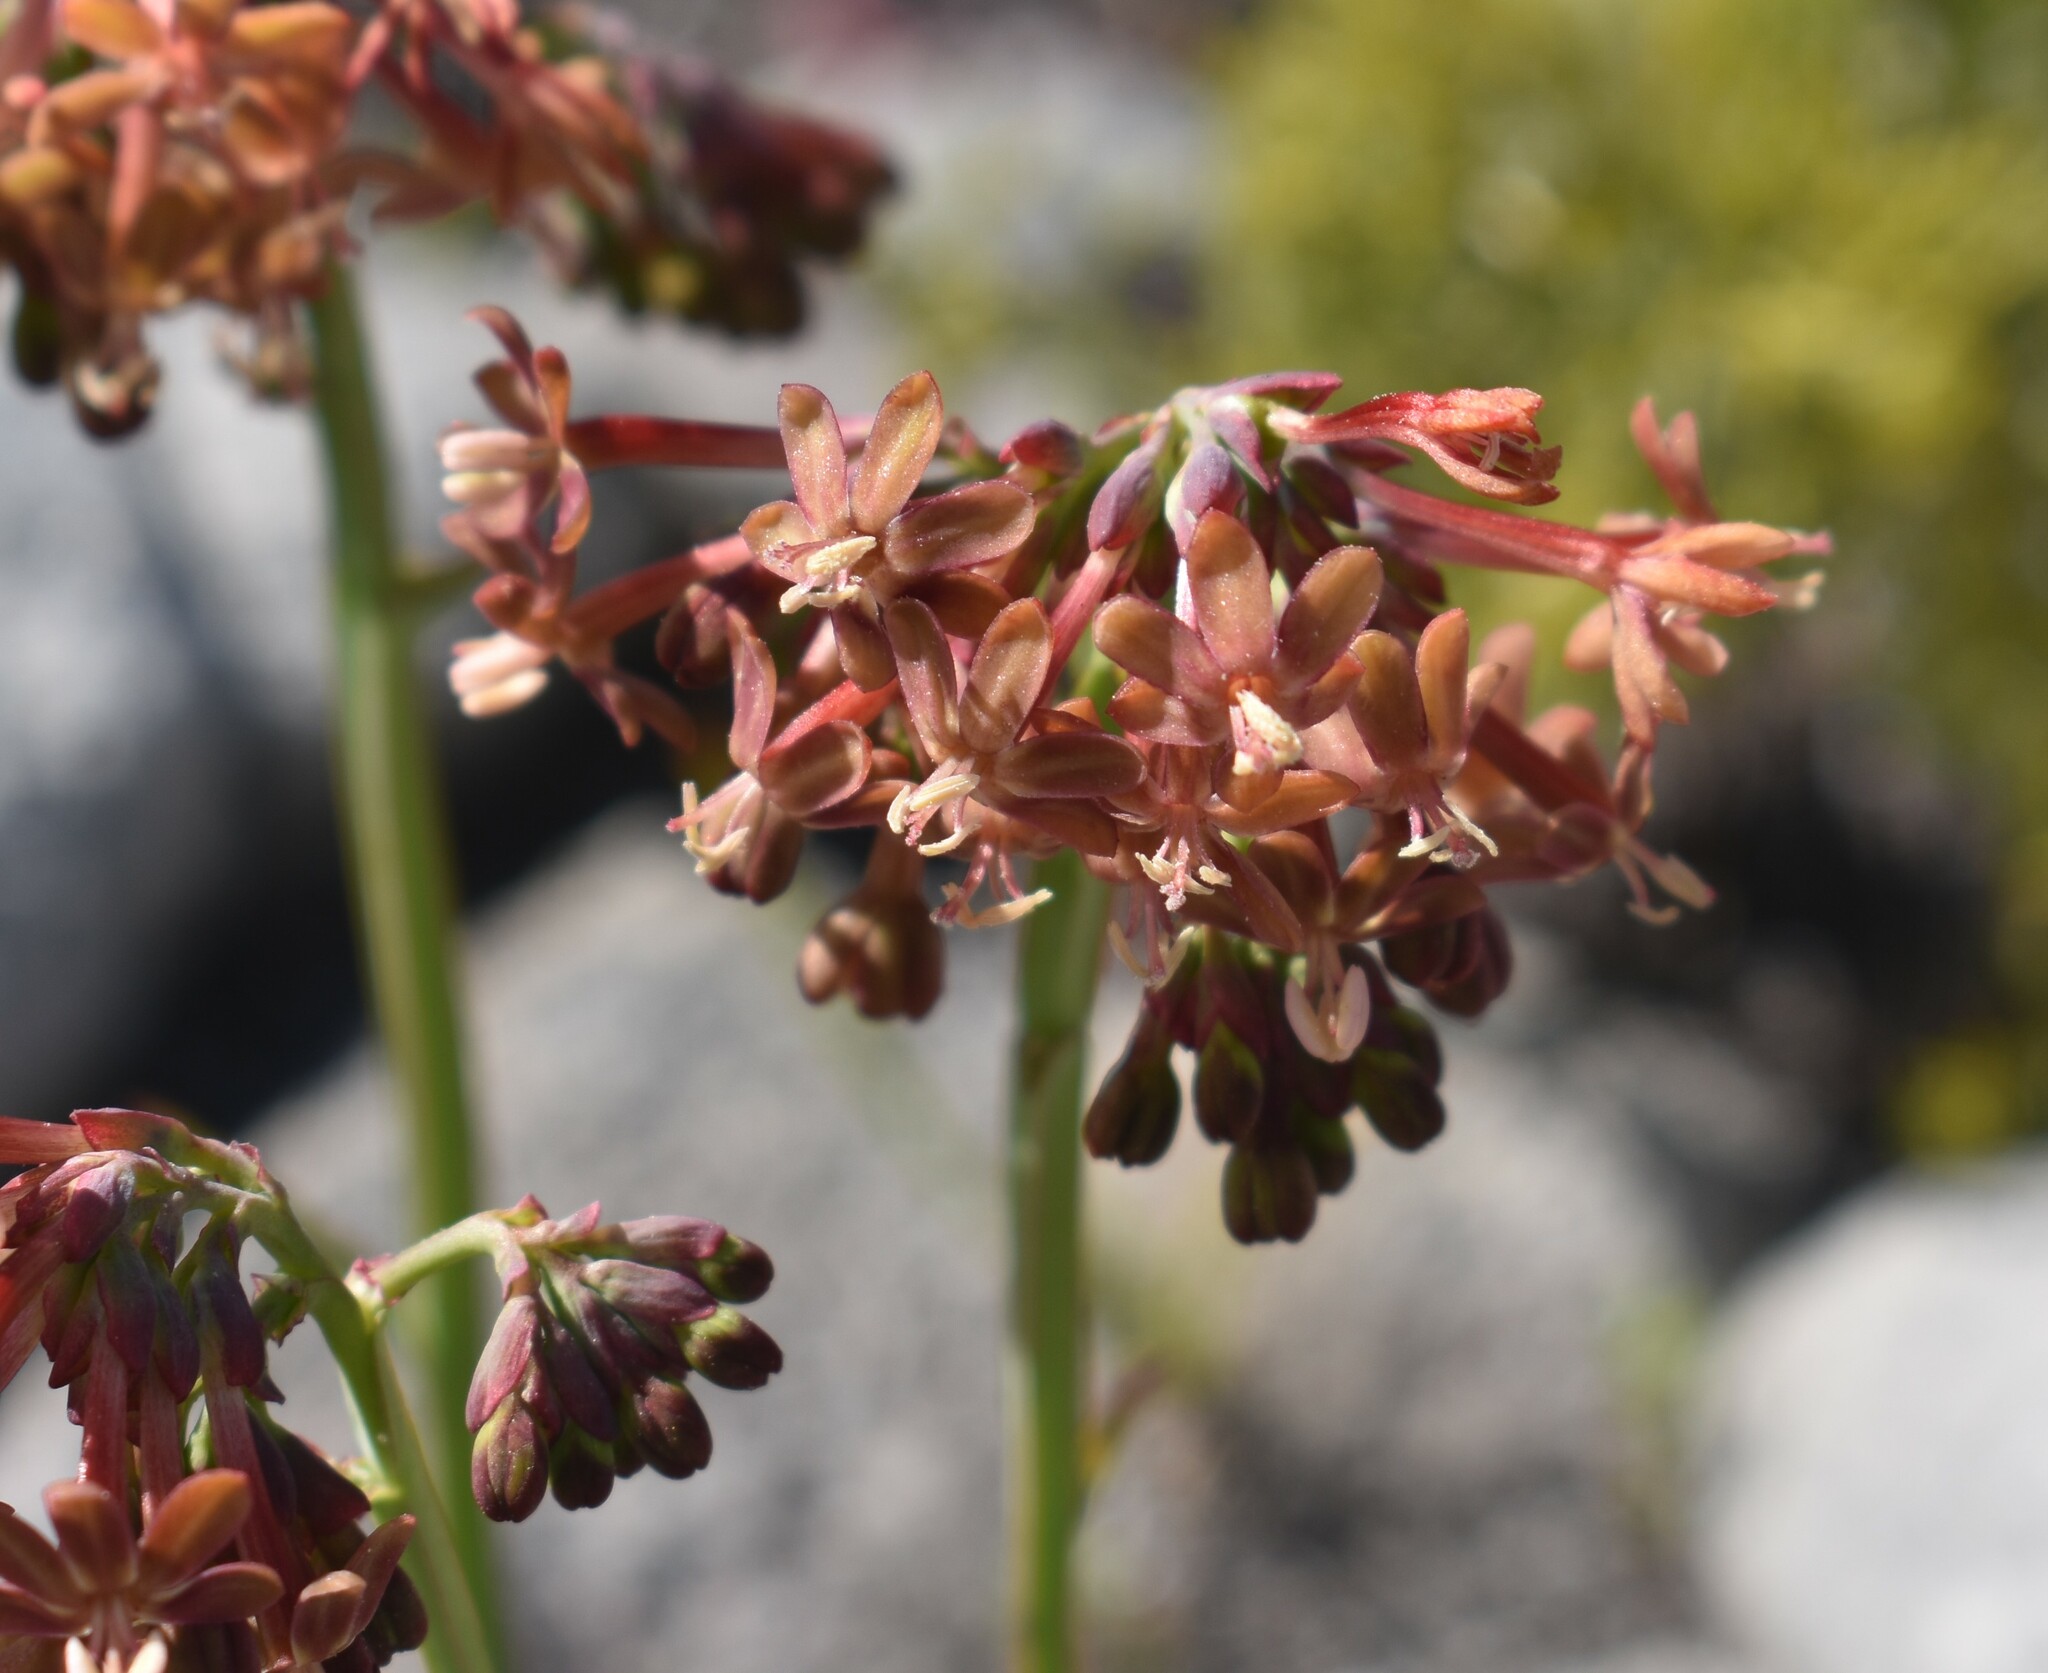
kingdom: Plantae
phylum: Tracheophyta
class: Liliopsida
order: Asparagales
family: Iridaceae
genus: Codonorhiza
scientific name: Codonorhiza micrantha
